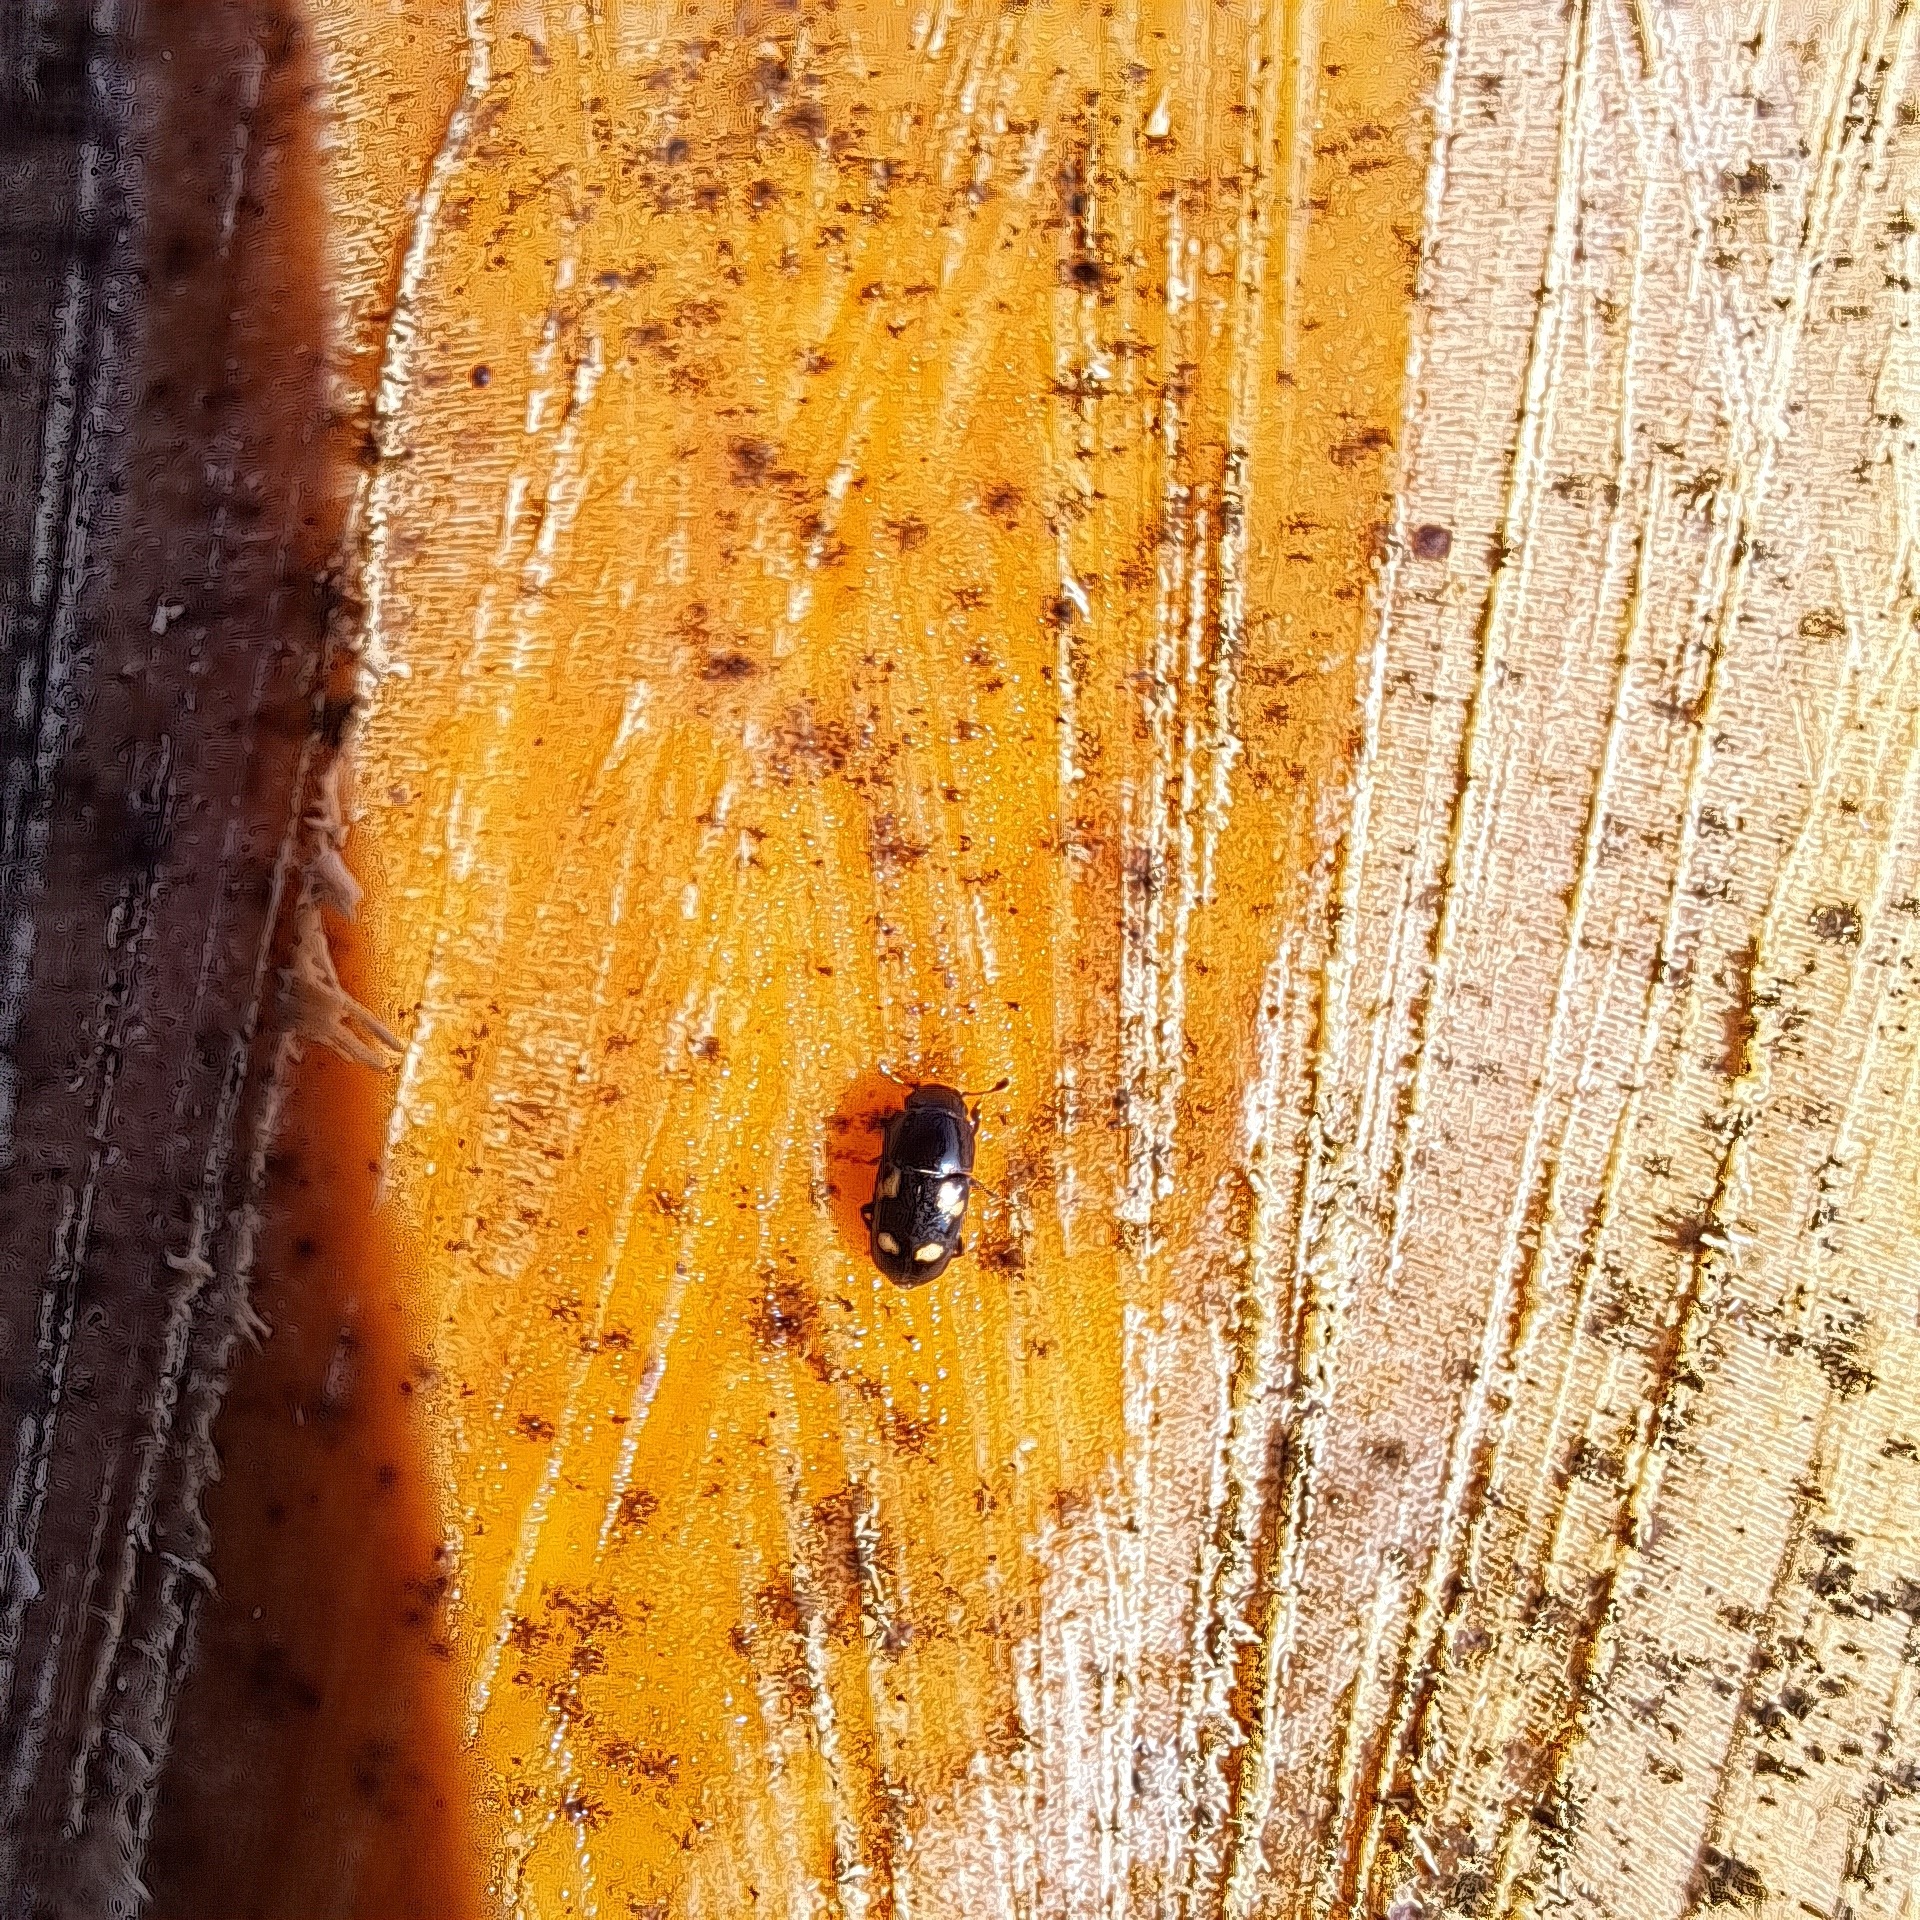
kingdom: Animalia
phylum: Arthropoda
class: Insecta
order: Coleoptera
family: Nitidulidae
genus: Glischrochilus
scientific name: Glischrochilus quadrisignatus
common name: Picnic beetle
